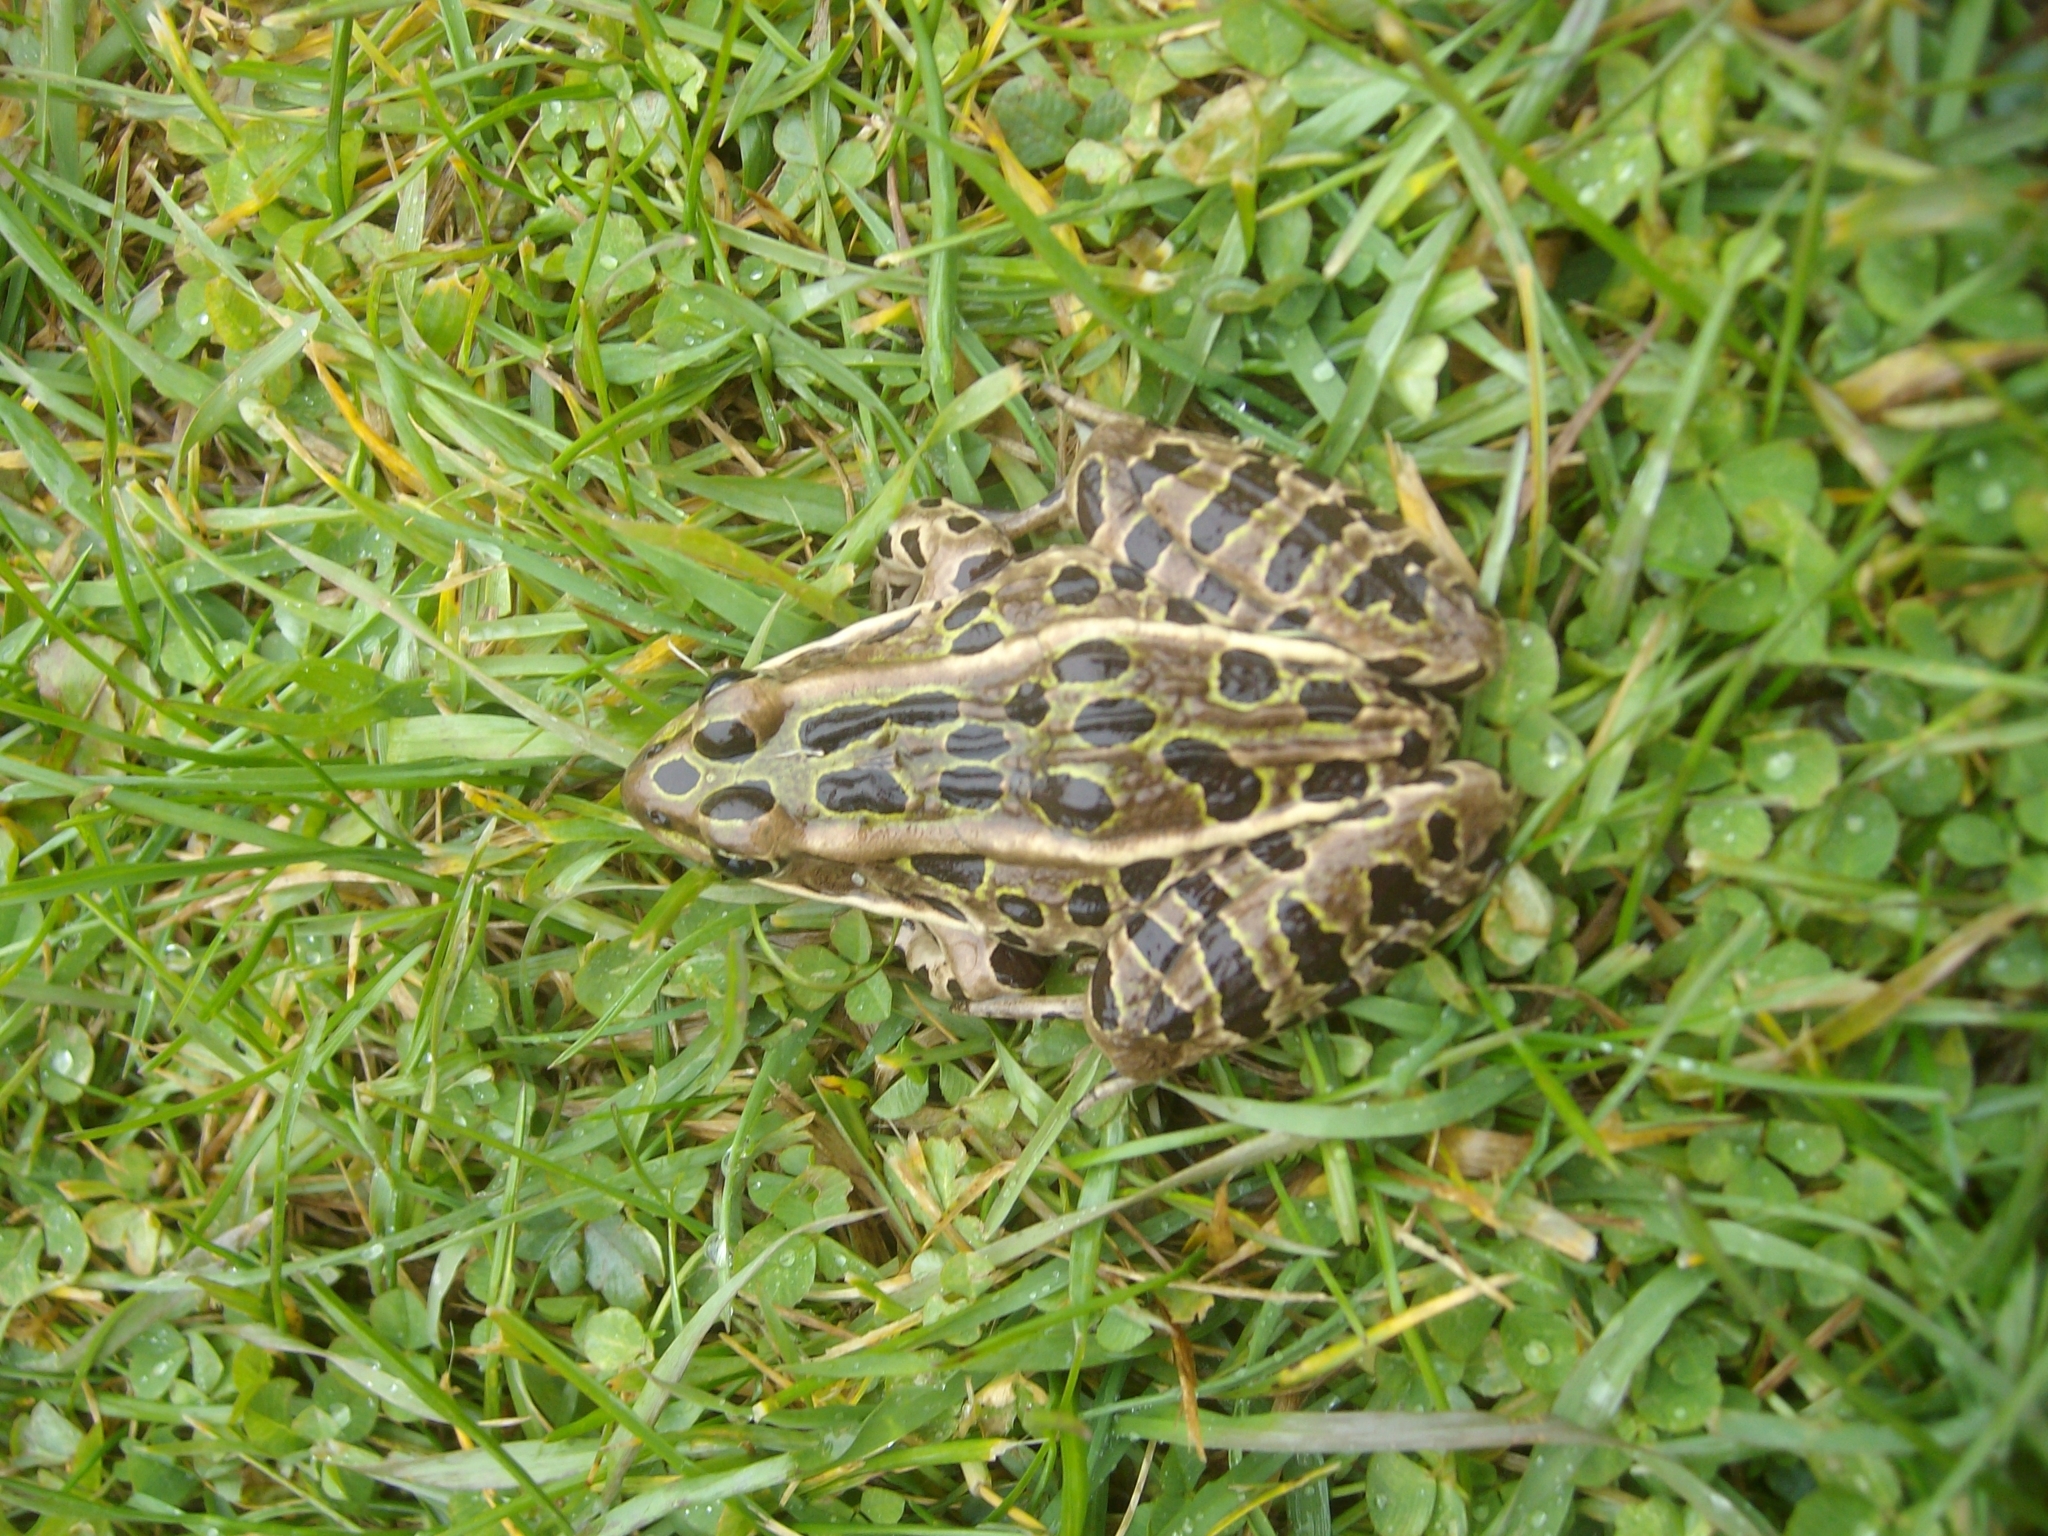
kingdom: Animalia
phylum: Chordata
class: Amphibia
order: Anura
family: Ranidae
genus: Lithobates
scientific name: Lithobates pipiens
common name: Northern leopard frog
